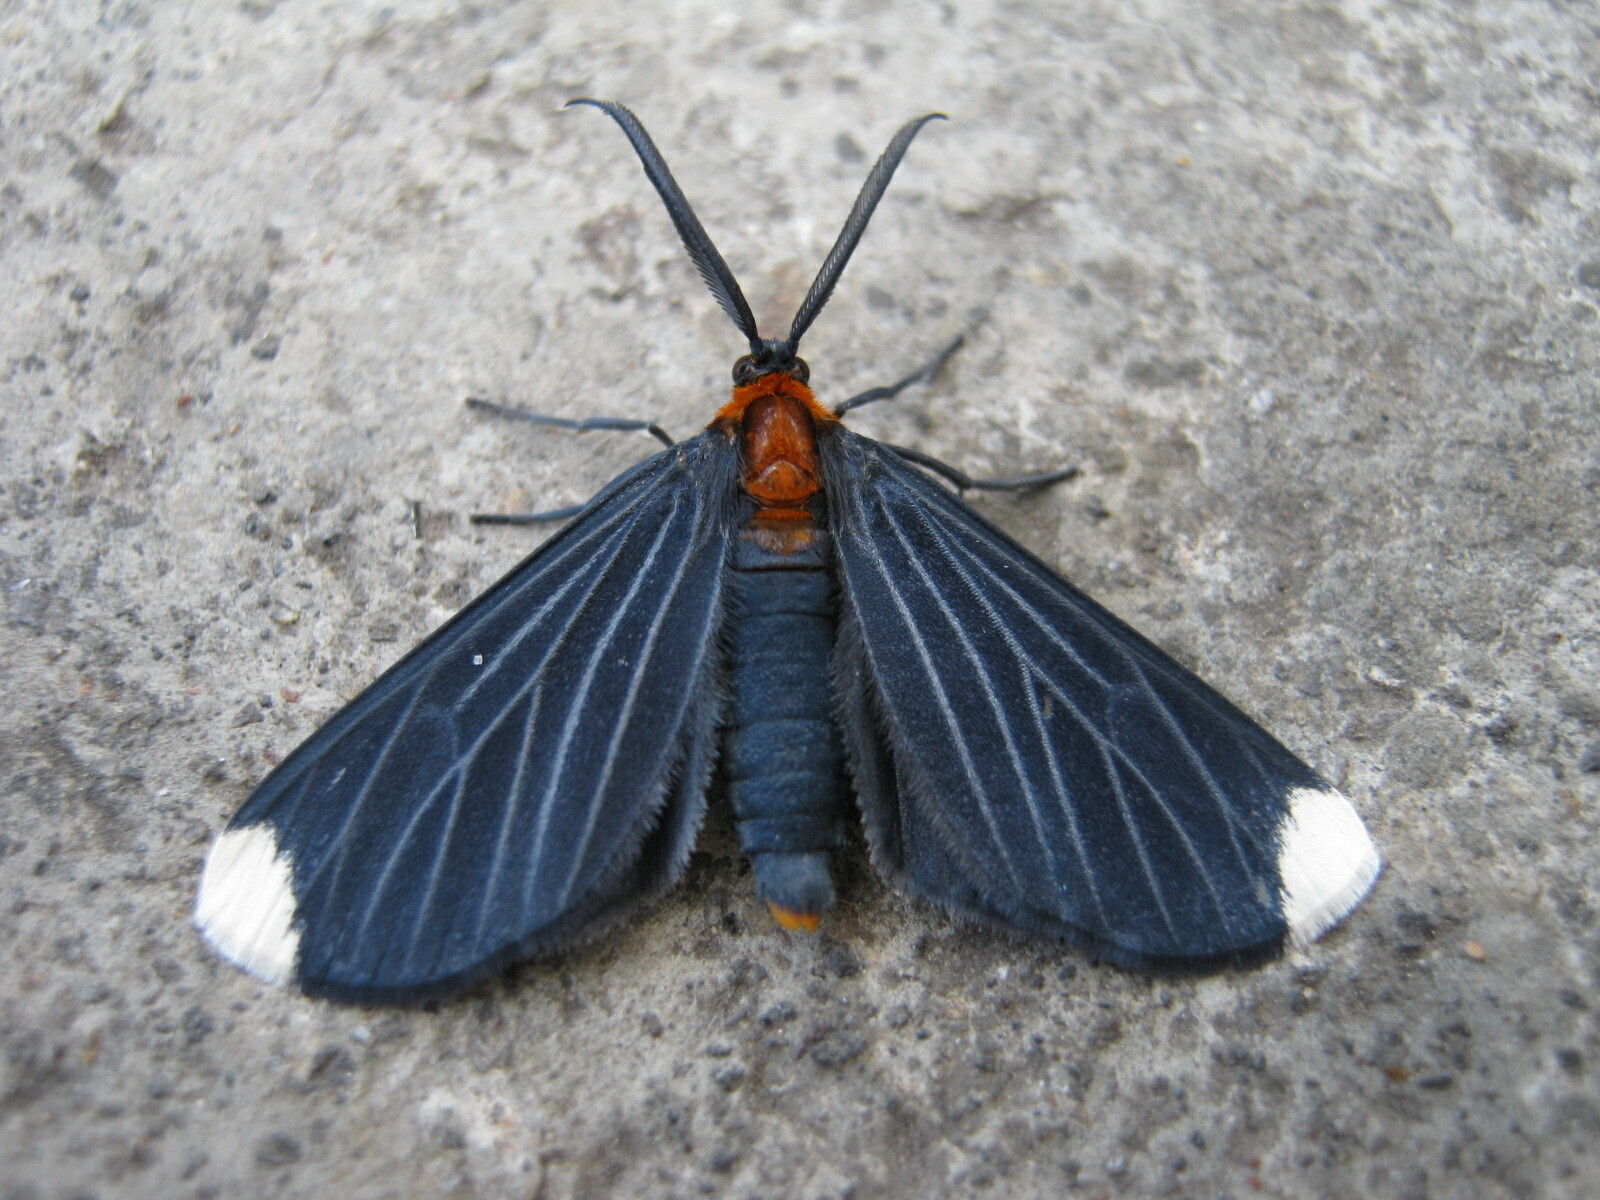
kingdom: Animalia
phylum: Arthropoda
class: Insecta
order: Lepidoptera
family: Geometridae
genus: Melanchroia
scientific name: Melanchroia chephise
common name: White-tipped black
